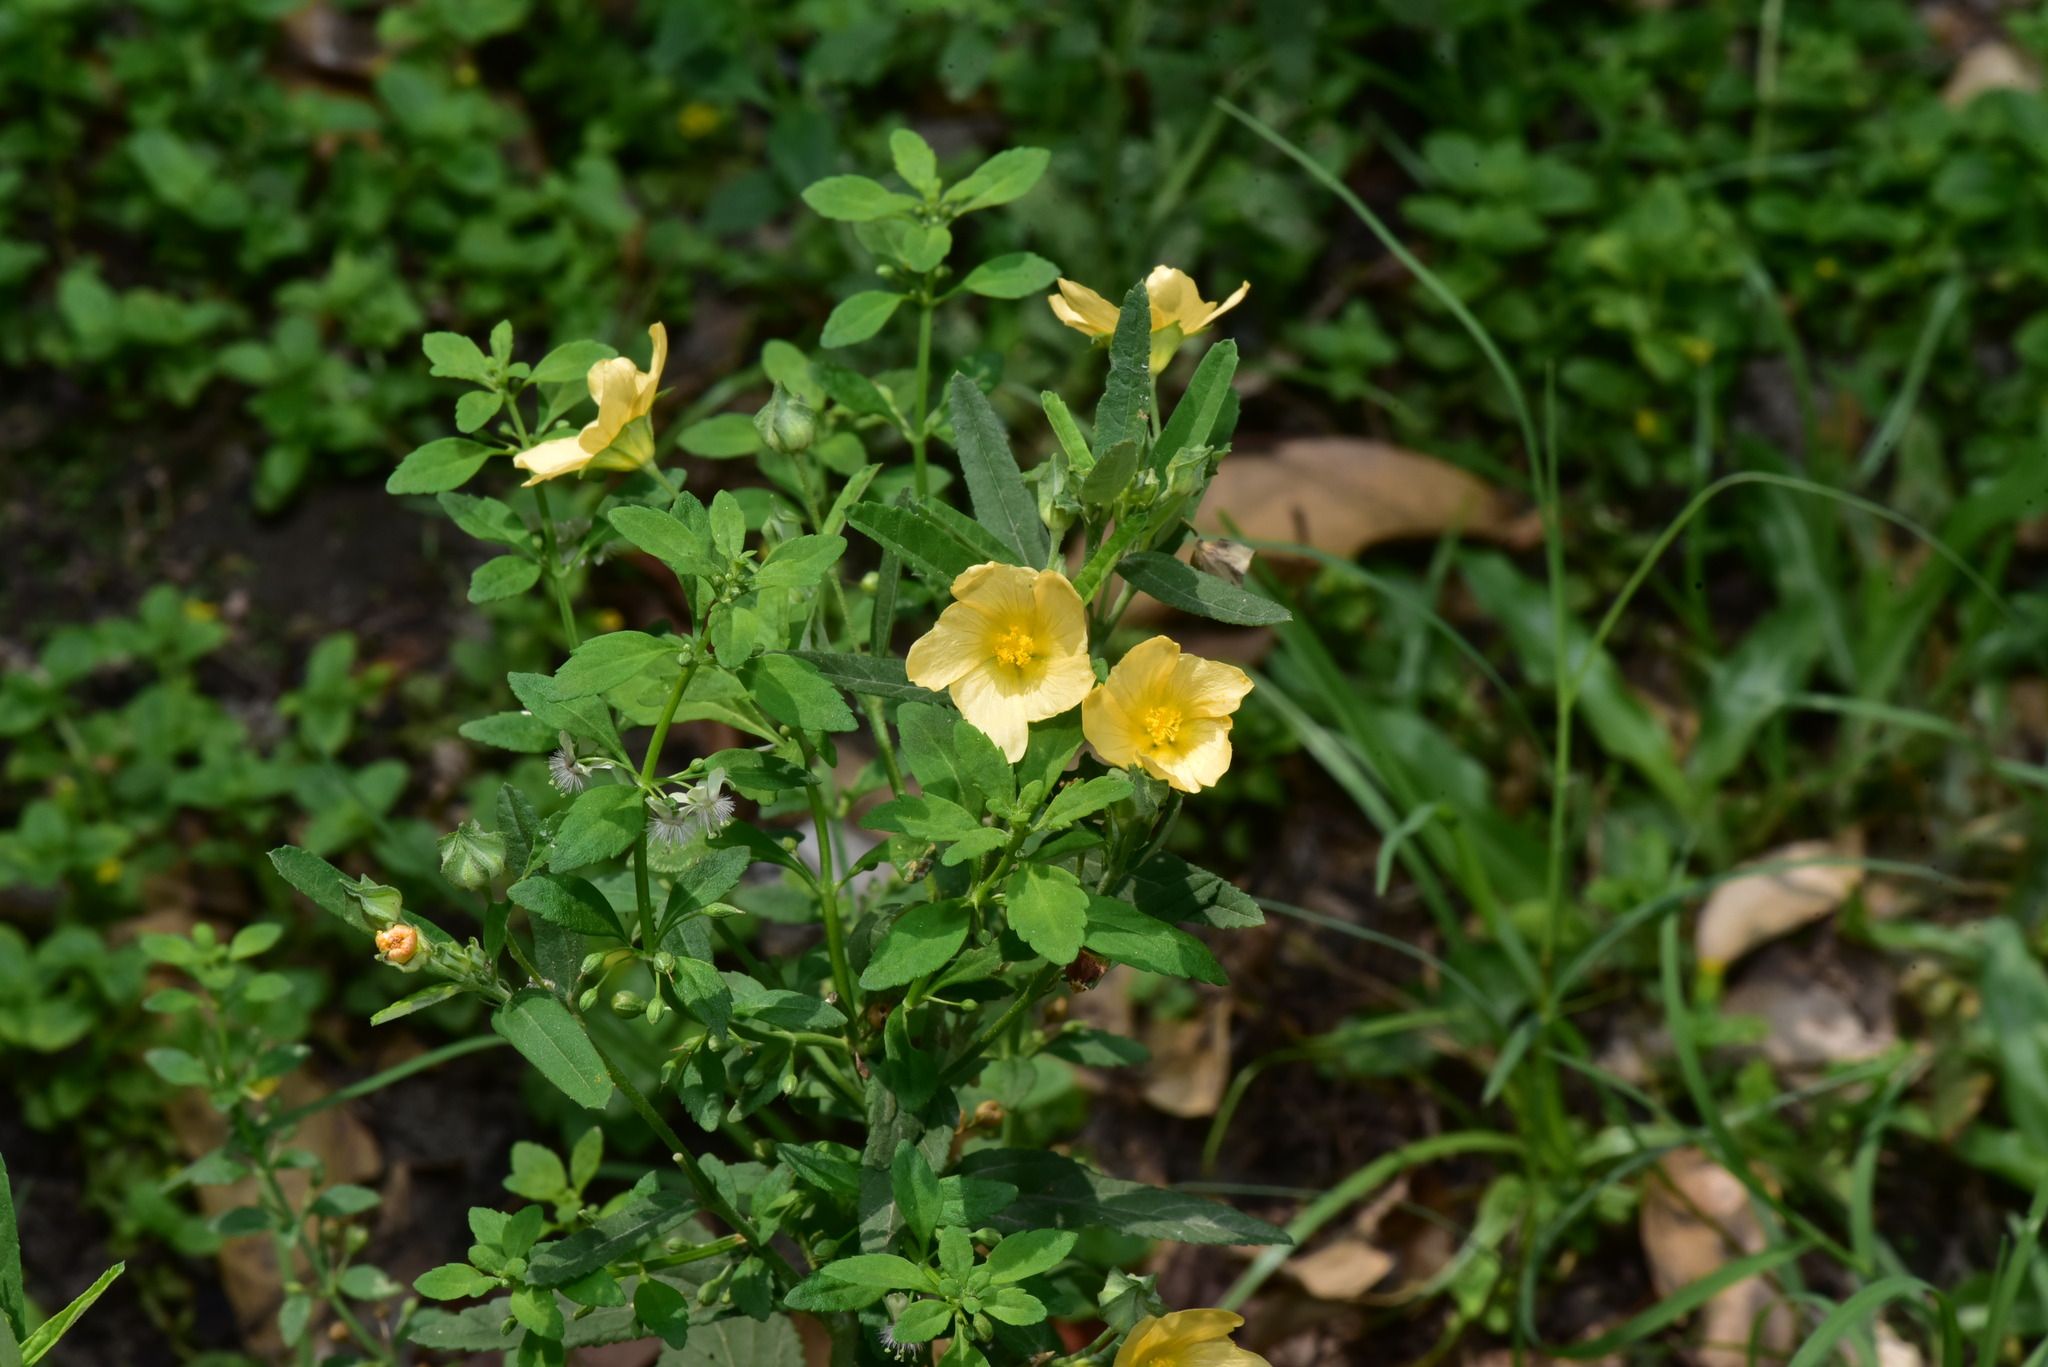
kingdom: Plantae
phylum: Tracheophyta
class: Magnoliopsida
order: Malvales
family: Malvaceae
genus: Sida
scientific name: Sida rhombifolia
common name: Queensland-hemp
